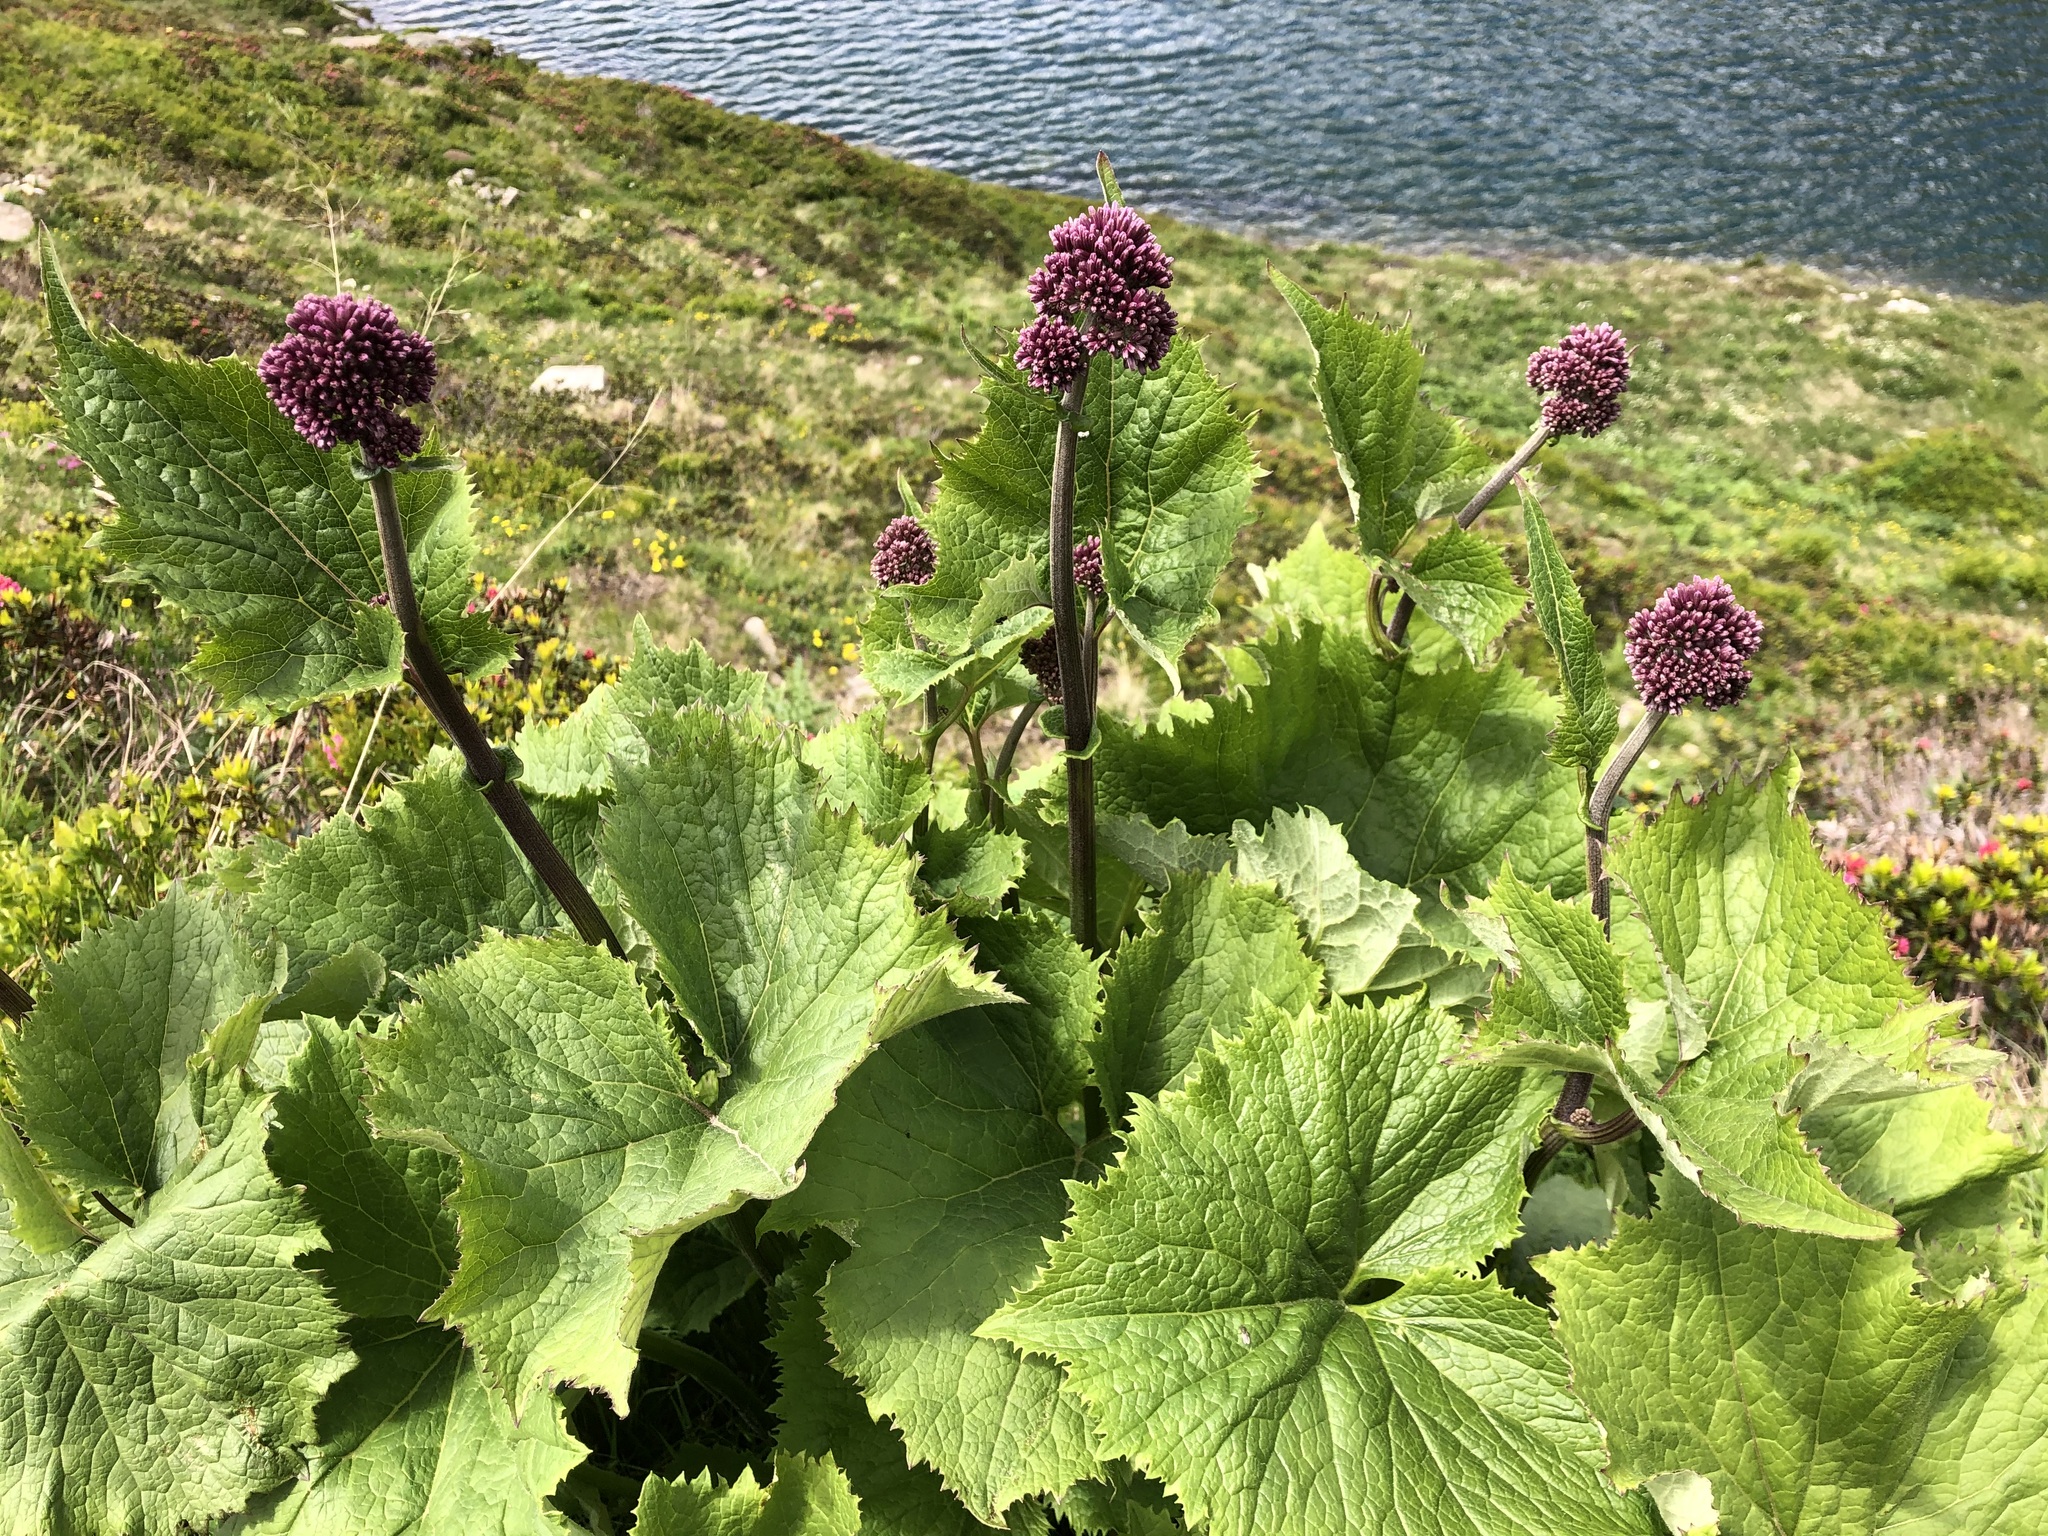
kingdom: Plantae
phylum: Tracheophyta
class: Magnoliopsida
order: Asterales
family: Asteraceae
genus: Adenostyles
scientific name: Adenostyles alliariae
